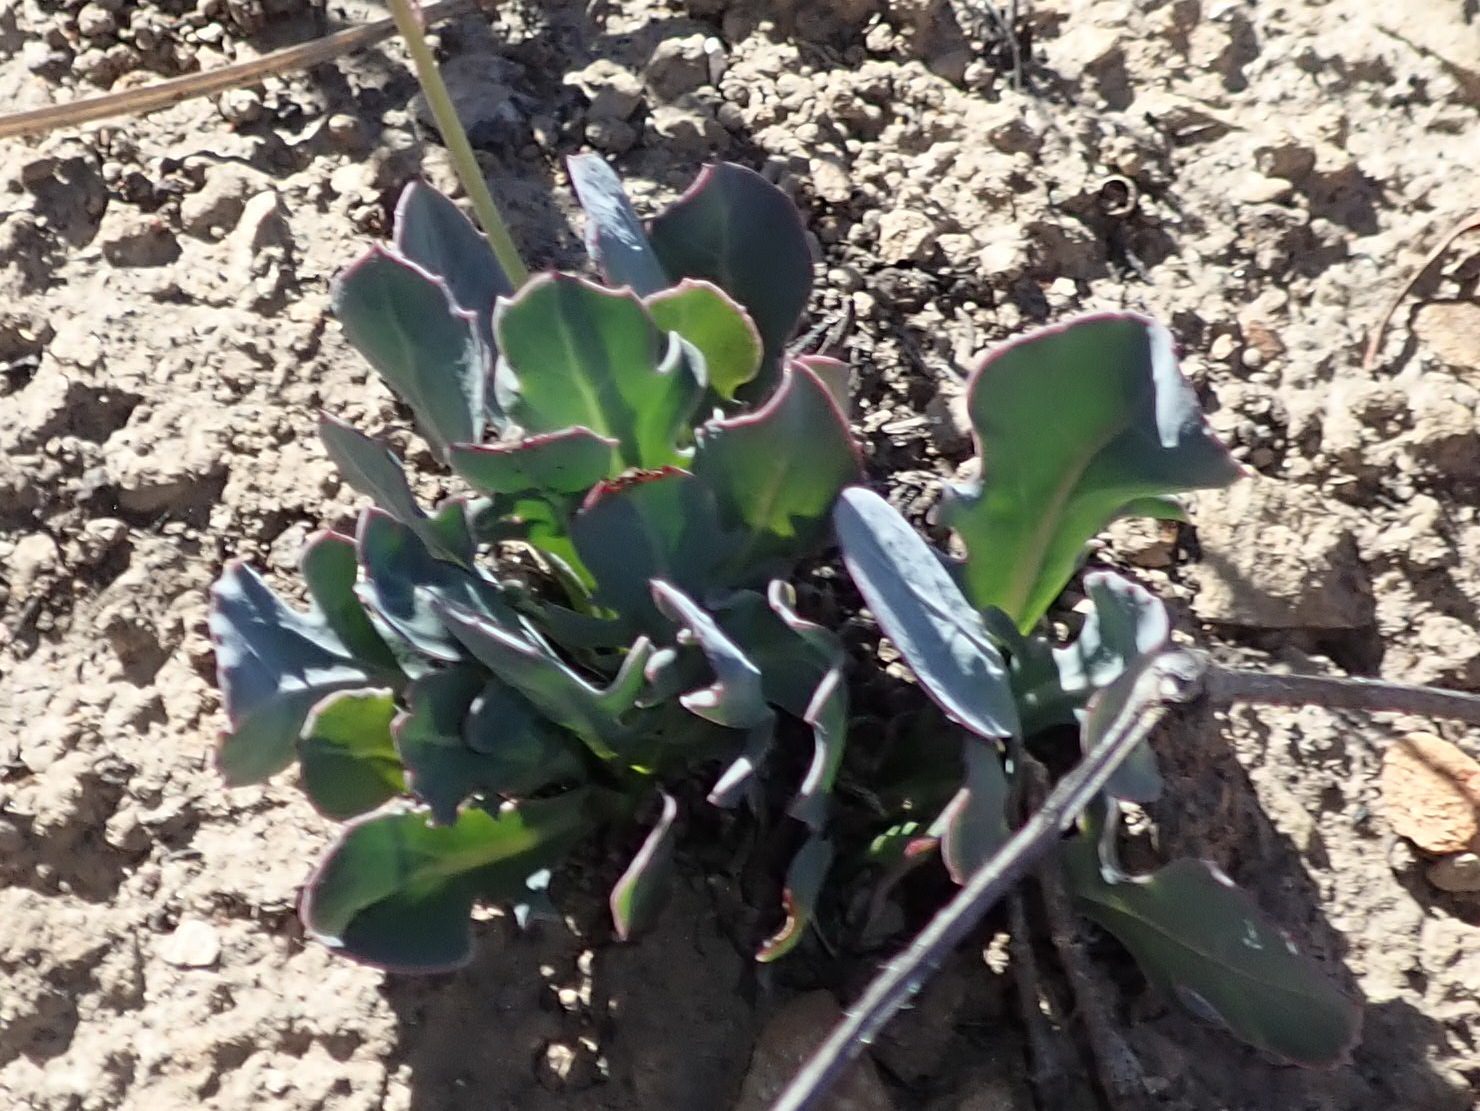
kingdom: Plantae
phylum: Tracheophyta
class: Magnoliopsida
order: Asterales
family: Asteraceae
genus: Othonna
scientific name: Othonna nigromontana
